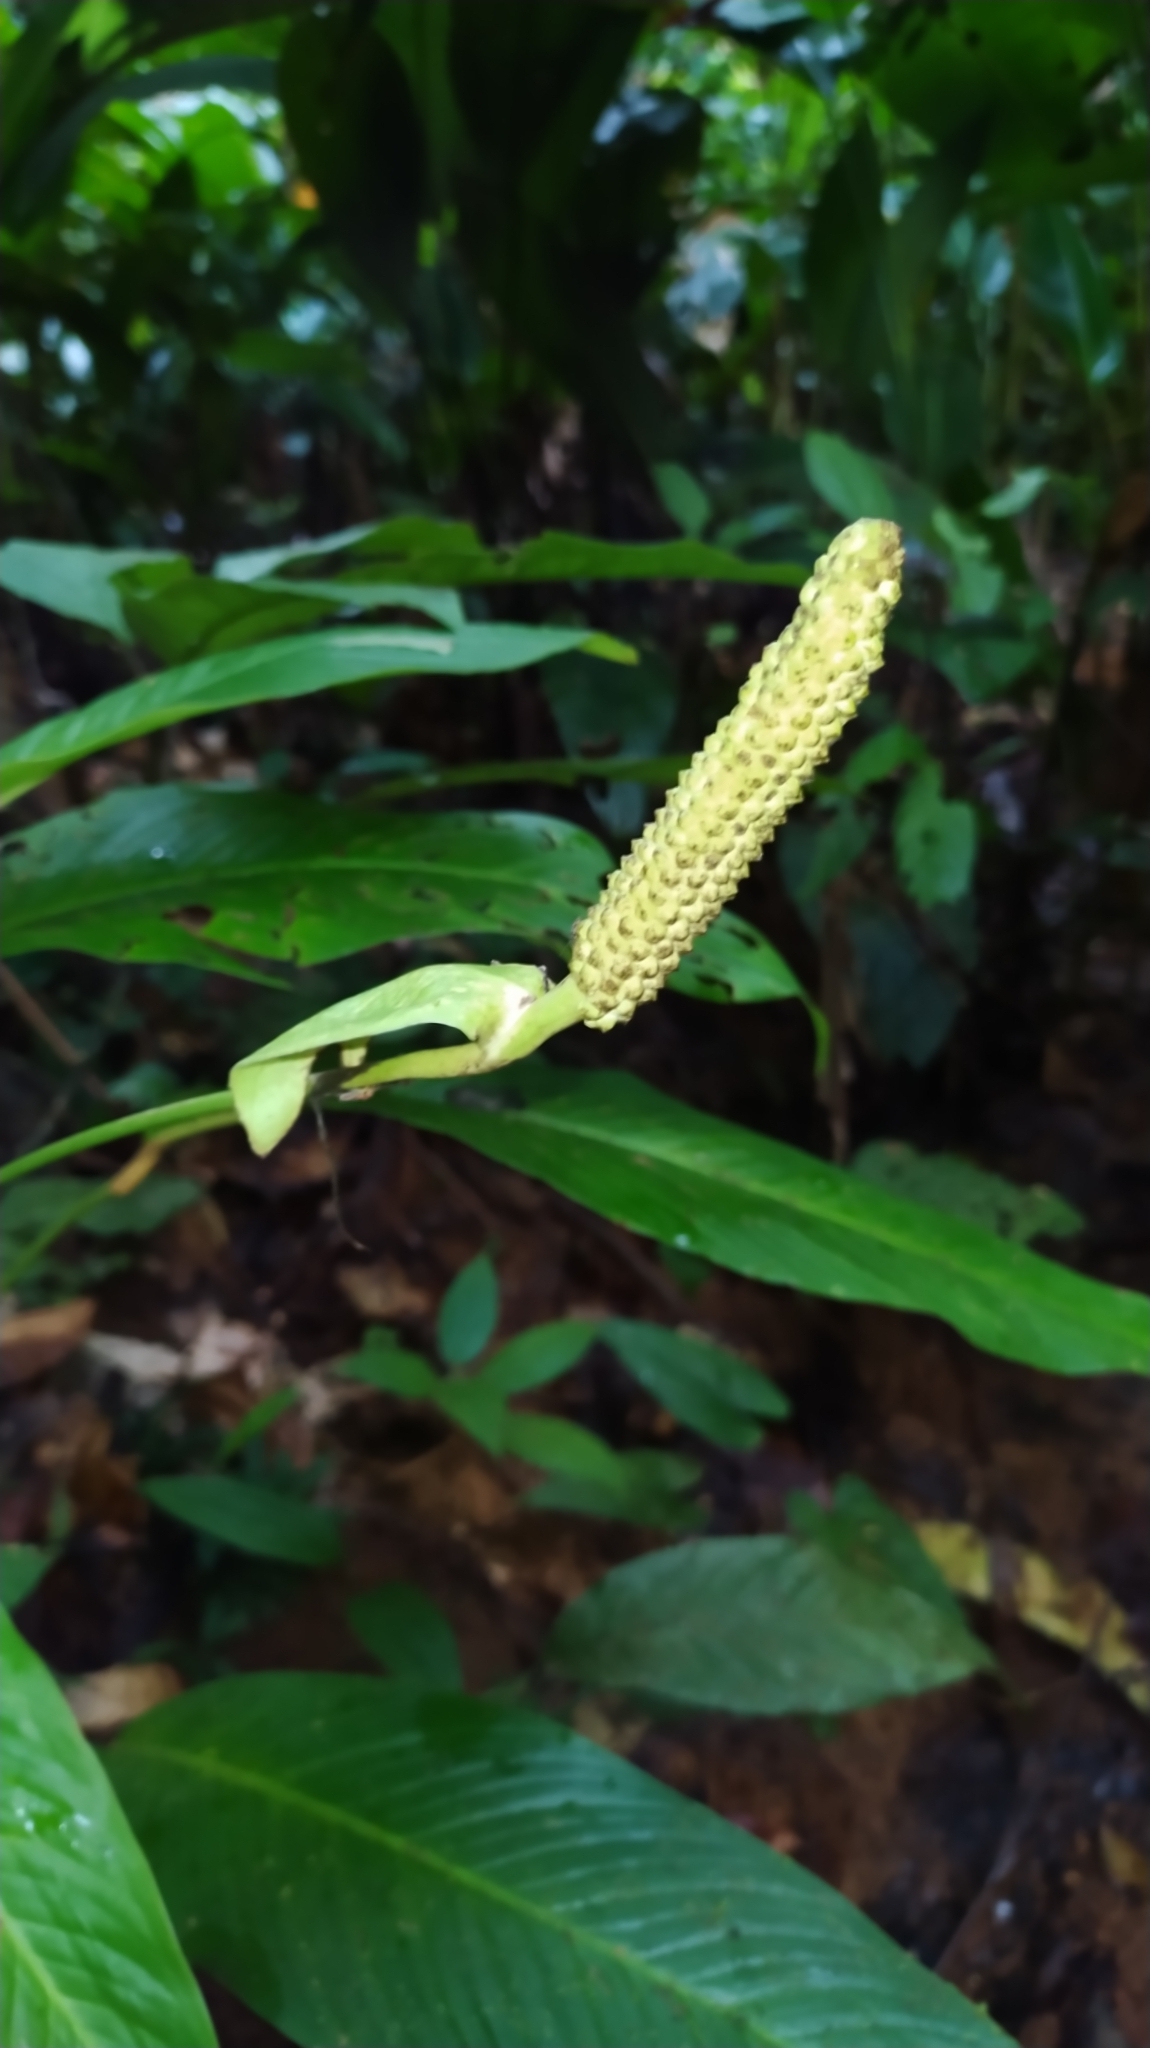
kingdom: Plantae
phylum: Tracheophyta
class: Liliopsida
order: Alismatales
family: Araceae
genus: Spathiphyllum
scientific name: Spathiphyllum humboldtii
